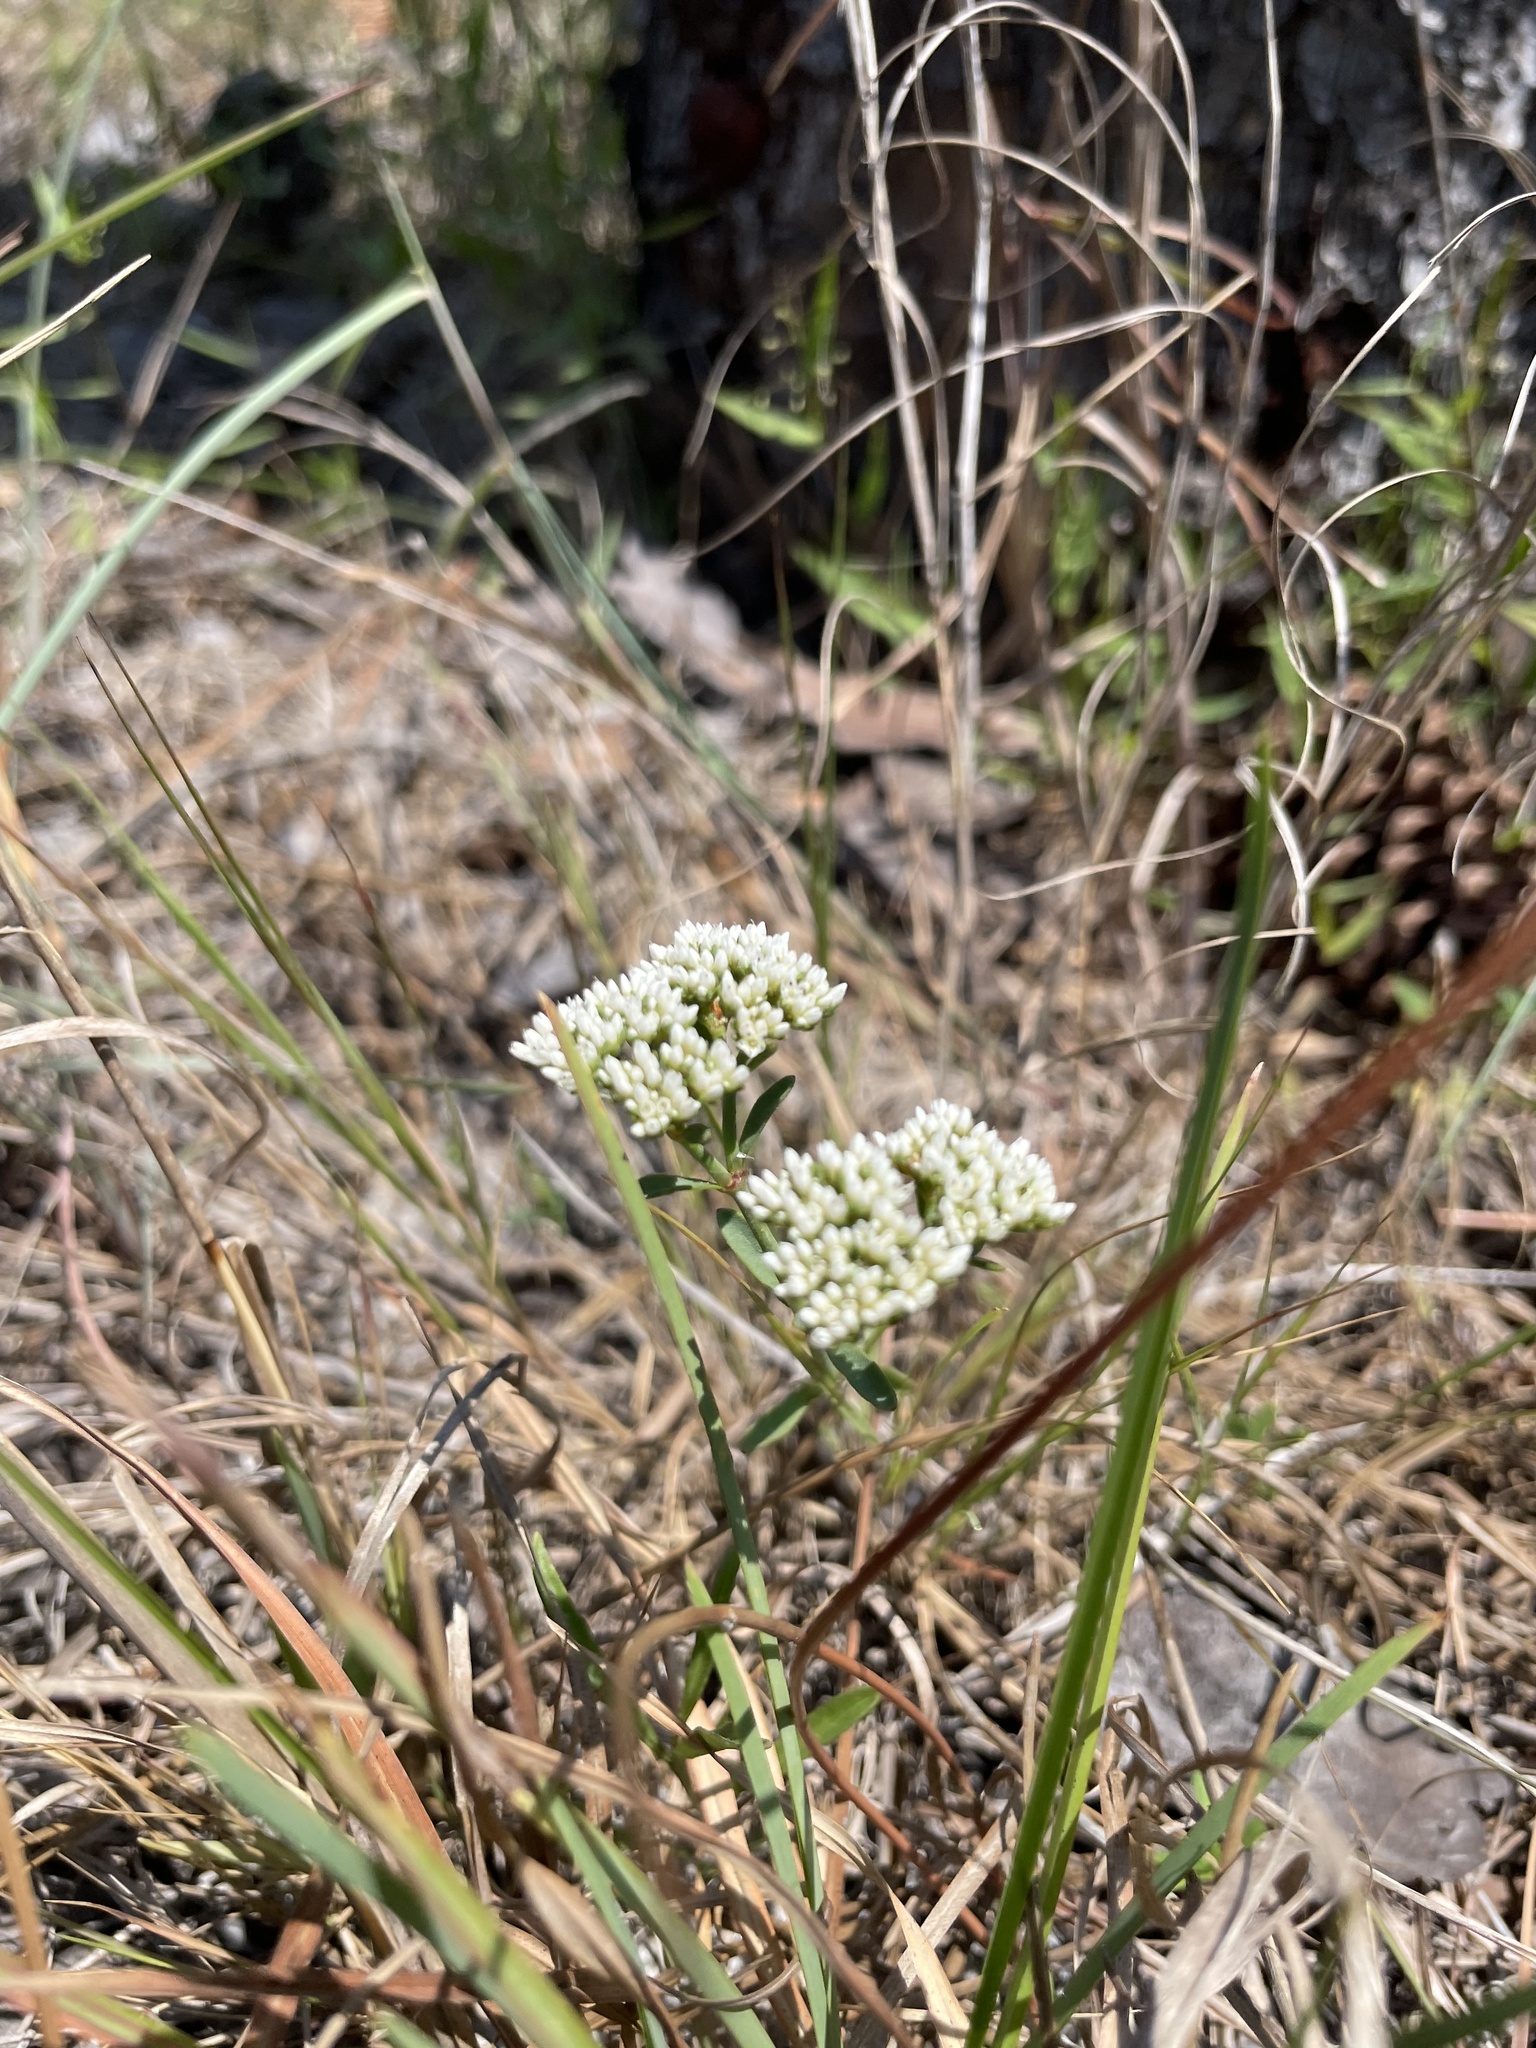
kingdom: Plantae
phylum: Tracheophyta
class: Magnoliopsida
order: Caryophyllales
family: Caryophyllaceae
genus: Paronychia
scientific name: Paronychia erecta
